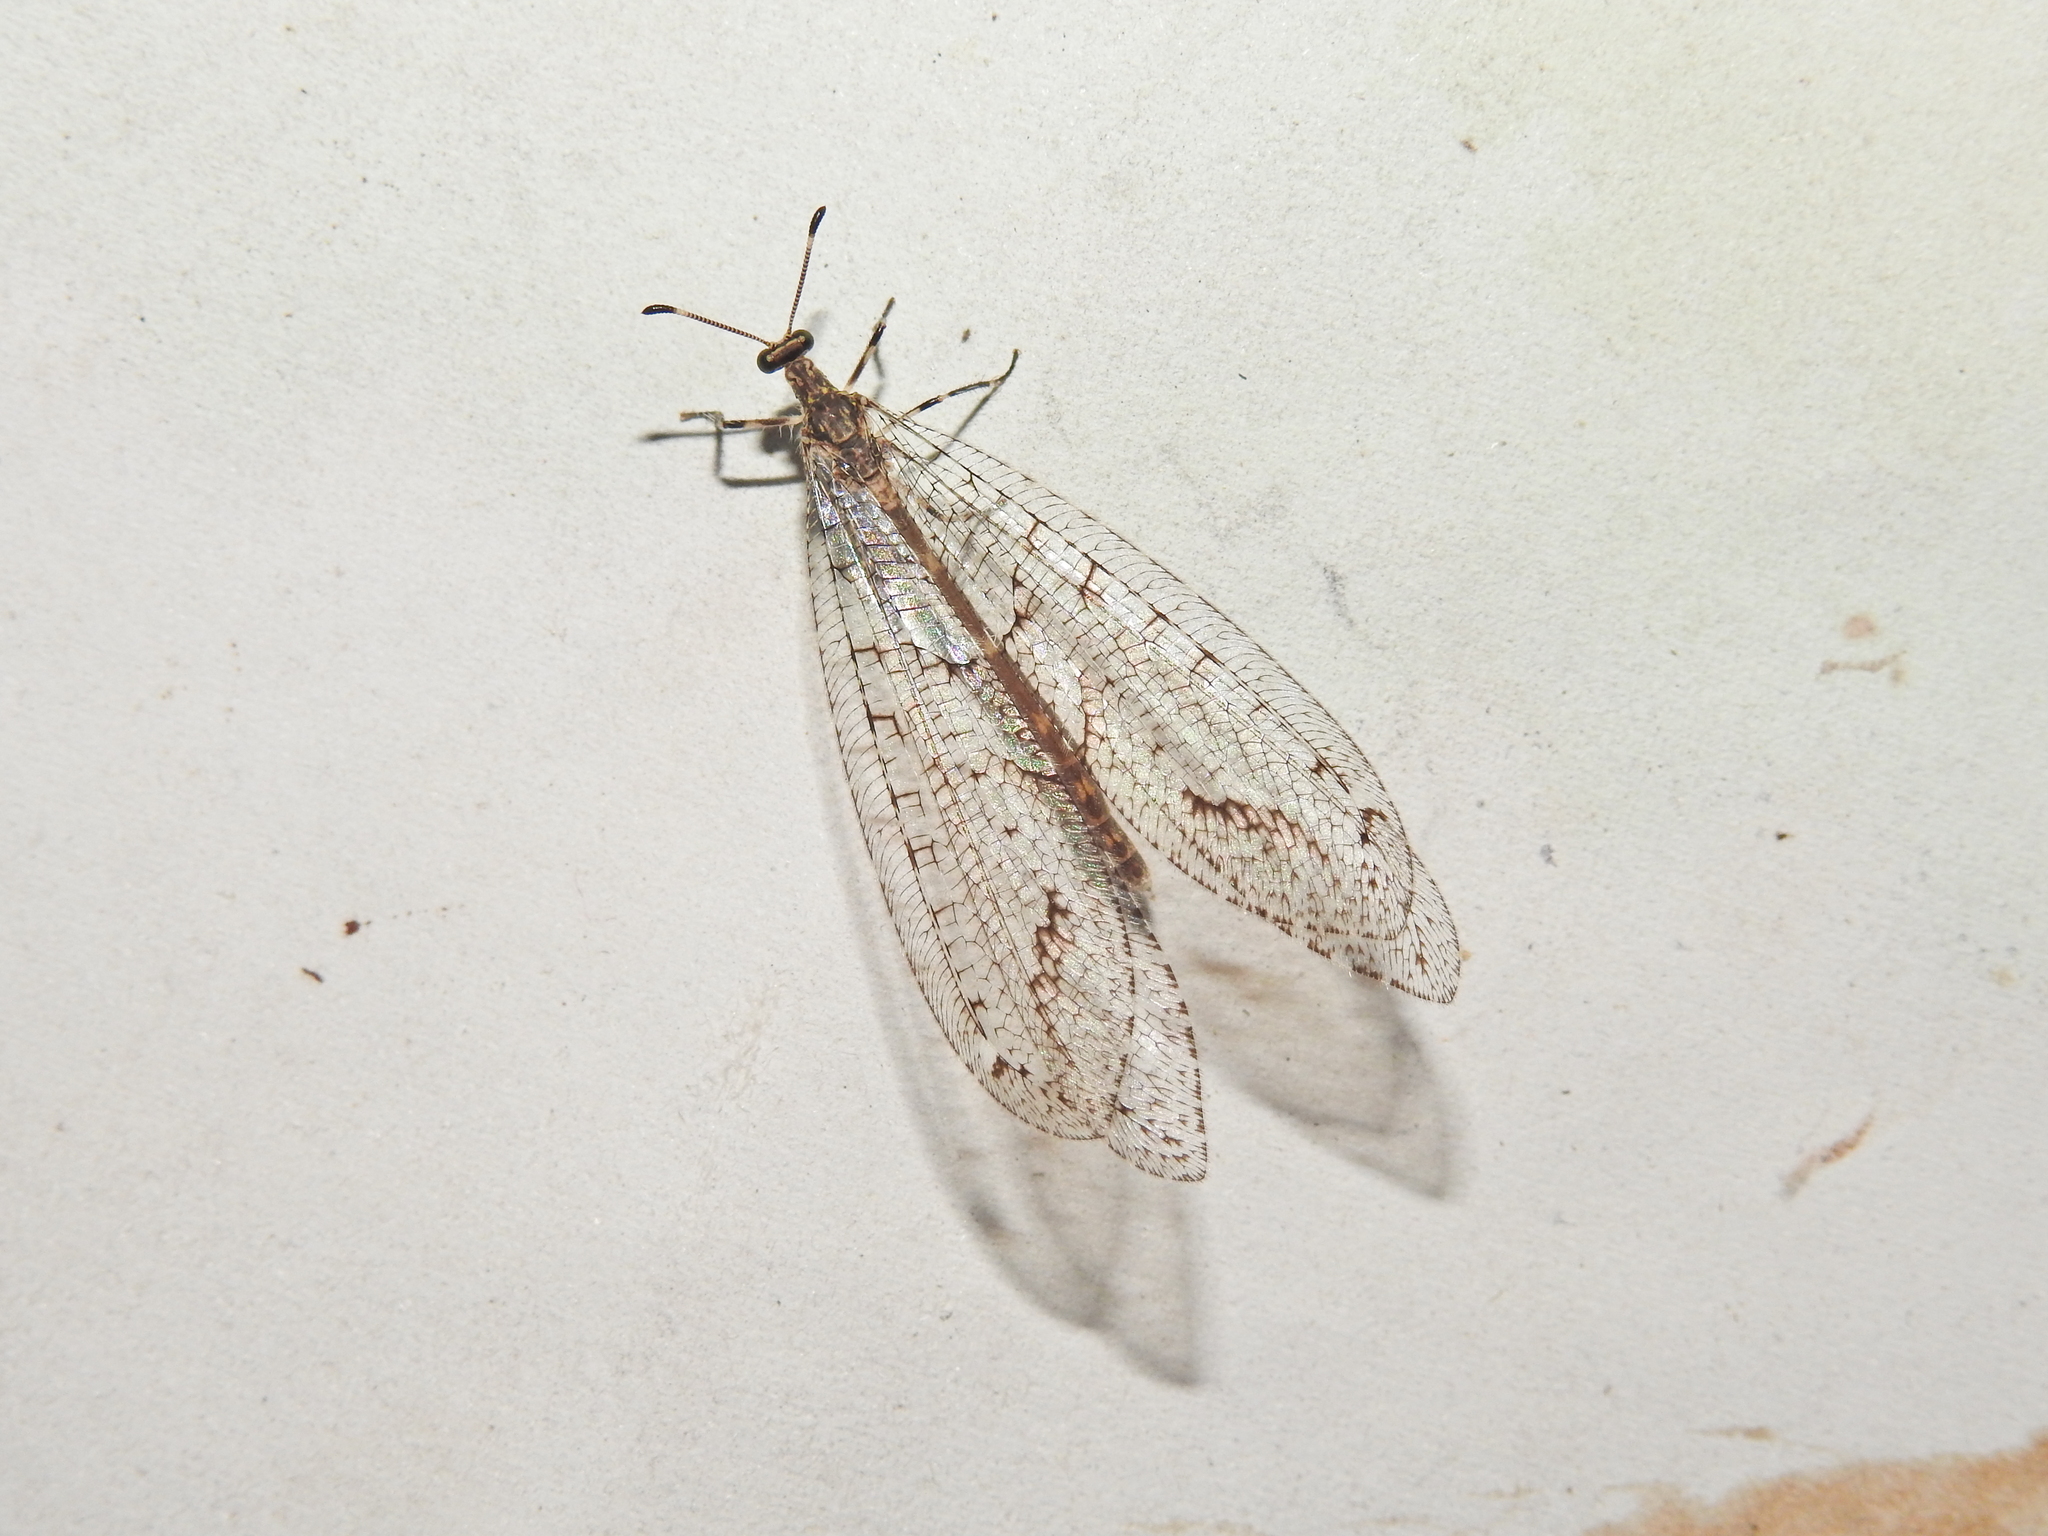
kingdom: Animalia
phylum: Arthropoda
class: Insecta
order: Neuroptera
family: Myrmeleontidae
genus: Mossega
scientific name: Mossega indecisa
